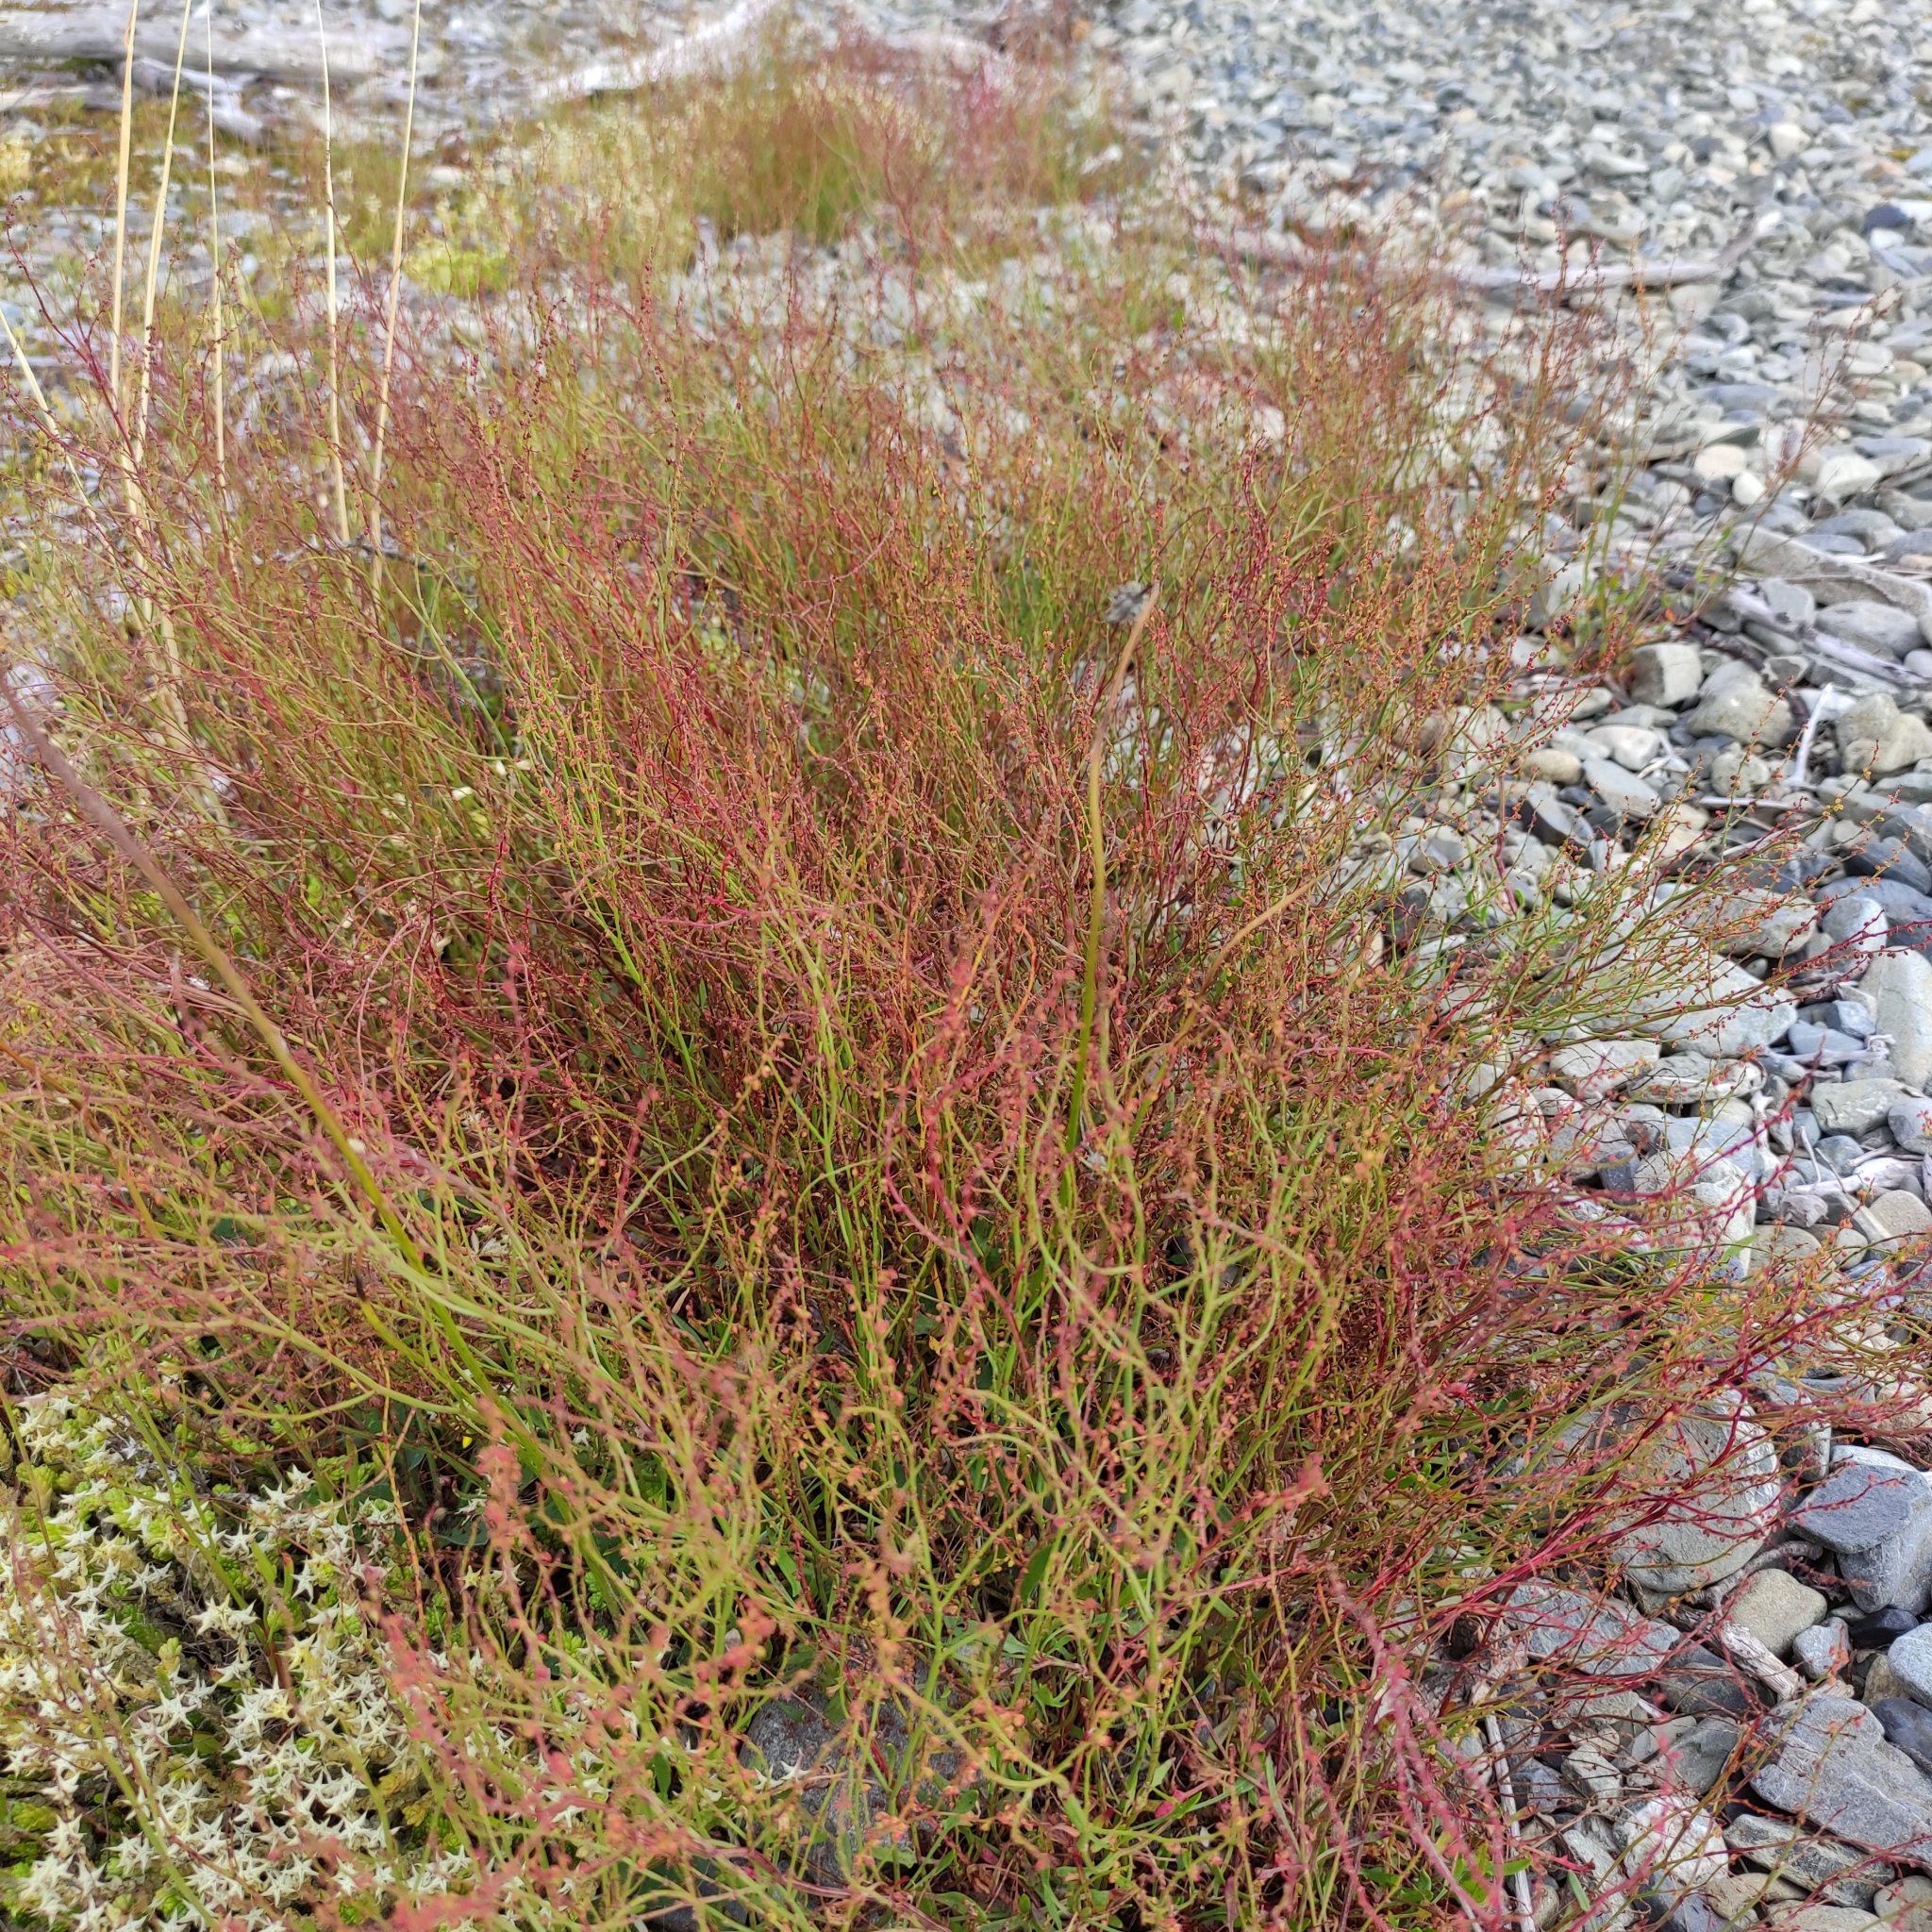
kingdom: Plantae
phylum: Tracheophyta
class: Magnoliopsida
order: Caryophyllales
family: Polygonaceae
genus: Rumex
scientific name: Rumex acetosella
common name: Common sheep sorrel
